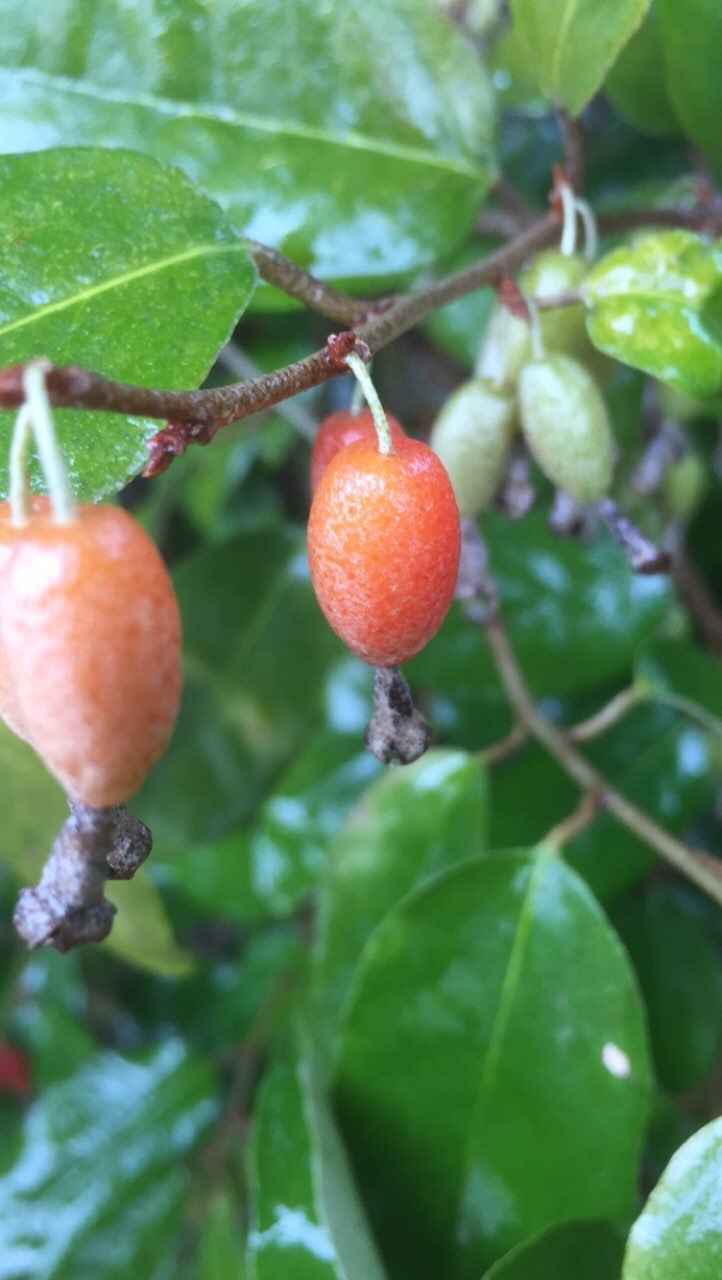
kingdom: Plantae
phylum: Tracheophyta
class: Magnoliopsida
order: Rosales
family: Elaeagnaceae
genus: Elaeagnus
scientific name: Elaeagnus pungens
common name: Spiny oleaster
